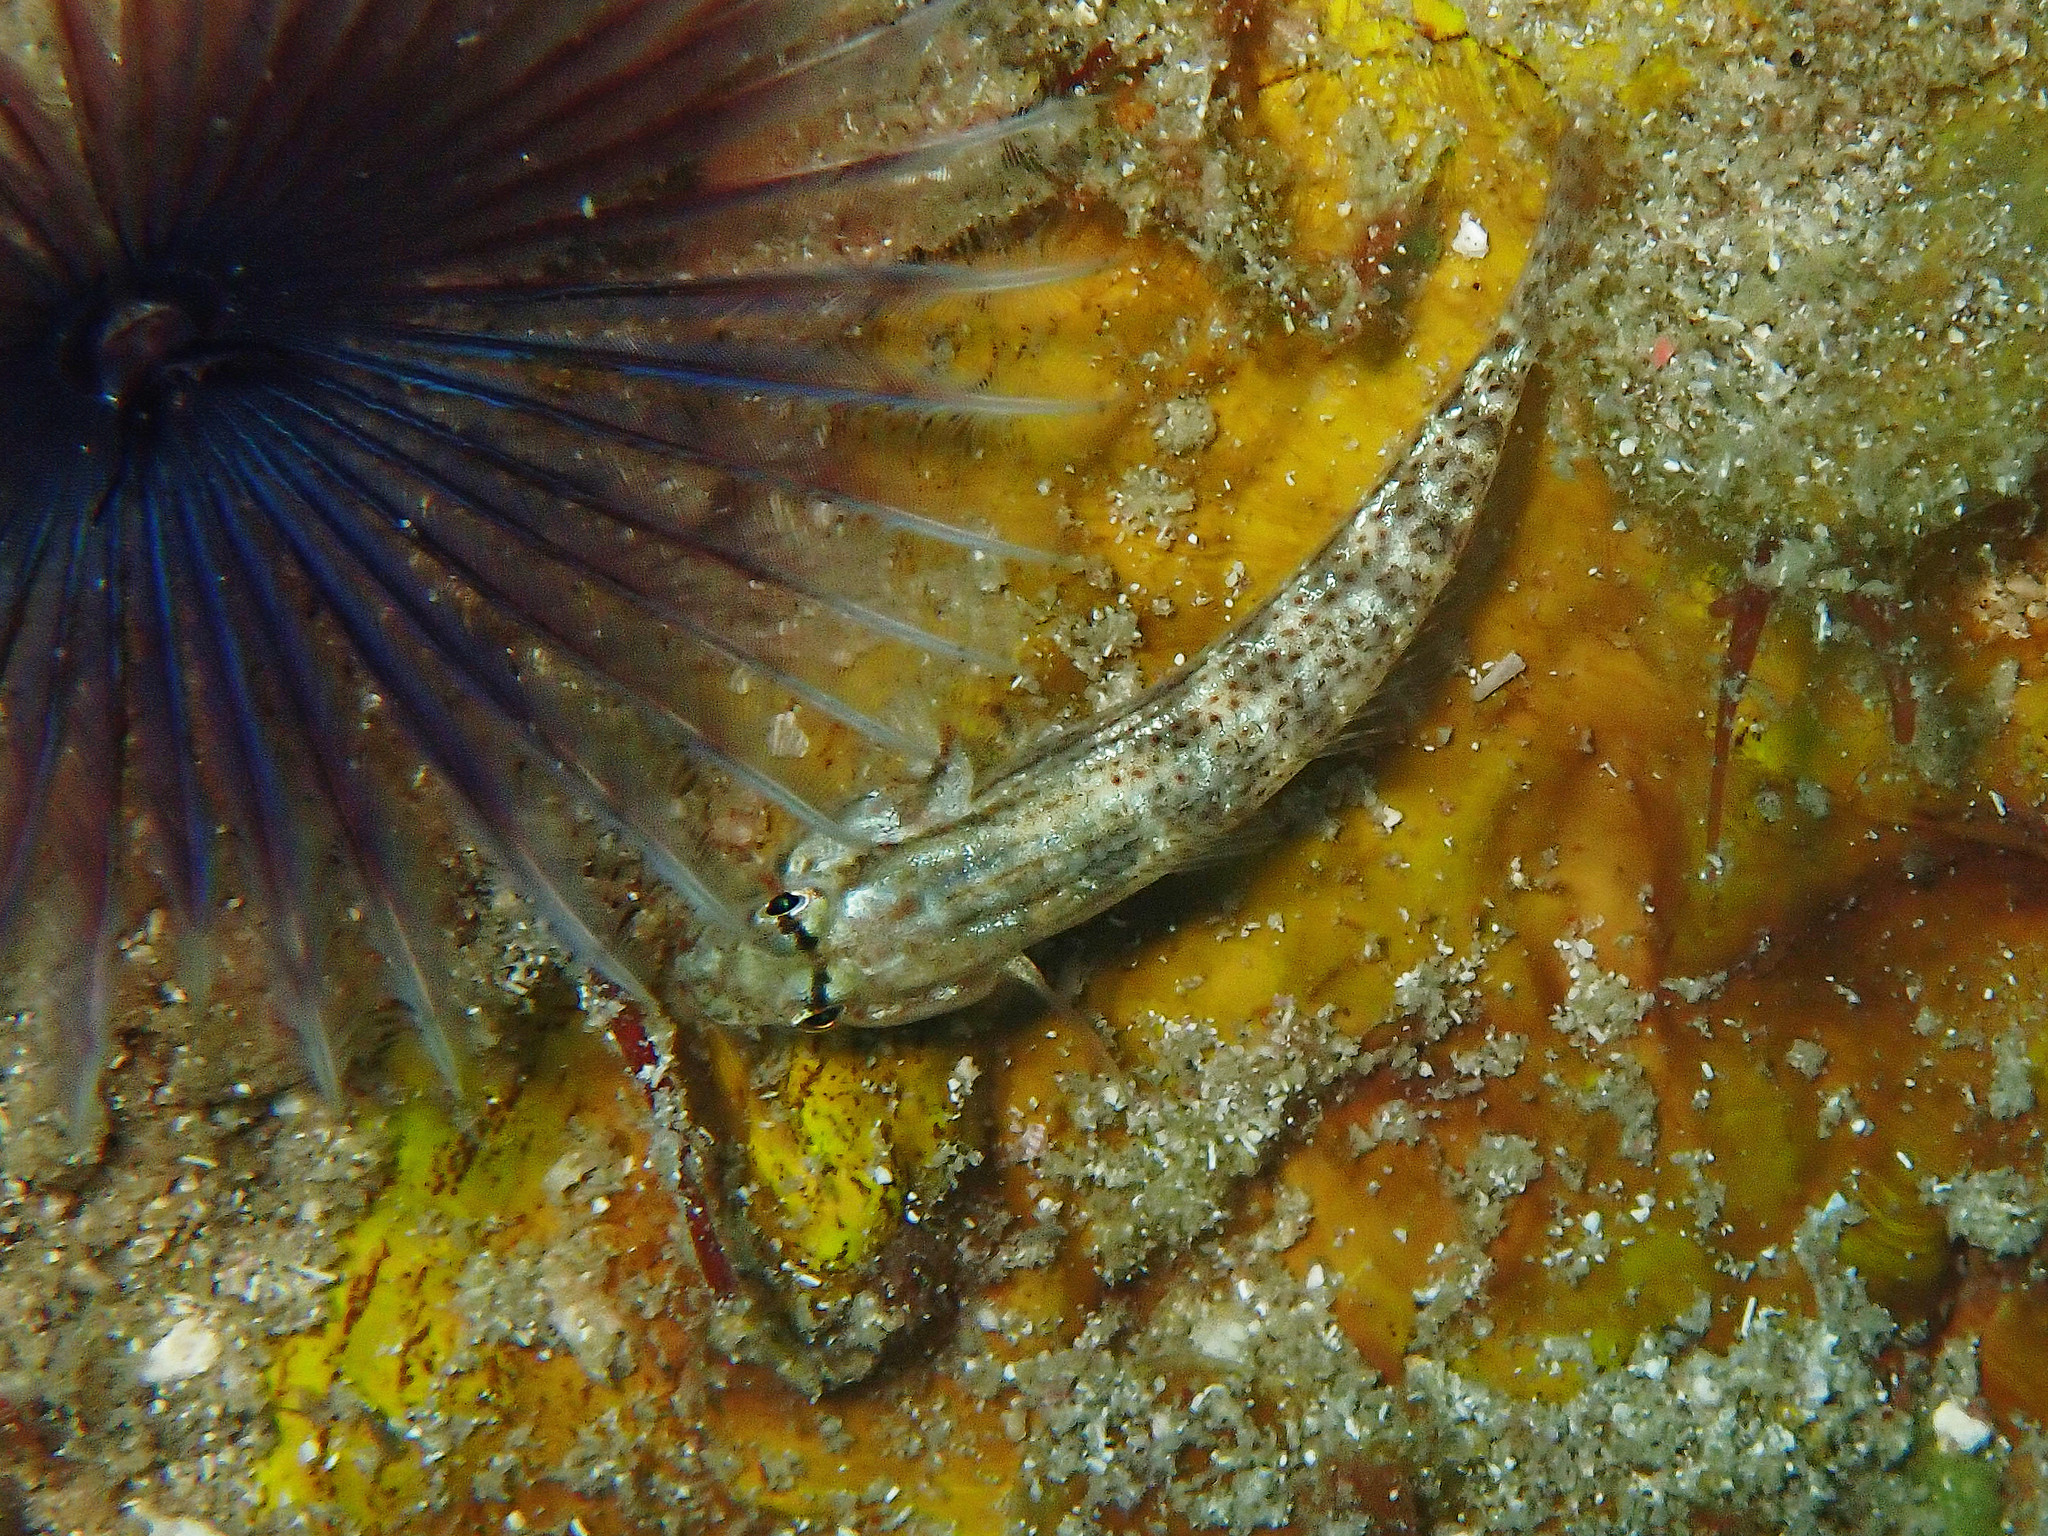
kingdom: Animalia
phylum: Chordata
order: Perciformes
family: Gobiidae
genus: Gnatholepis
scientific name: Gnatholepis thompsoni
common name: Goldspot goby
